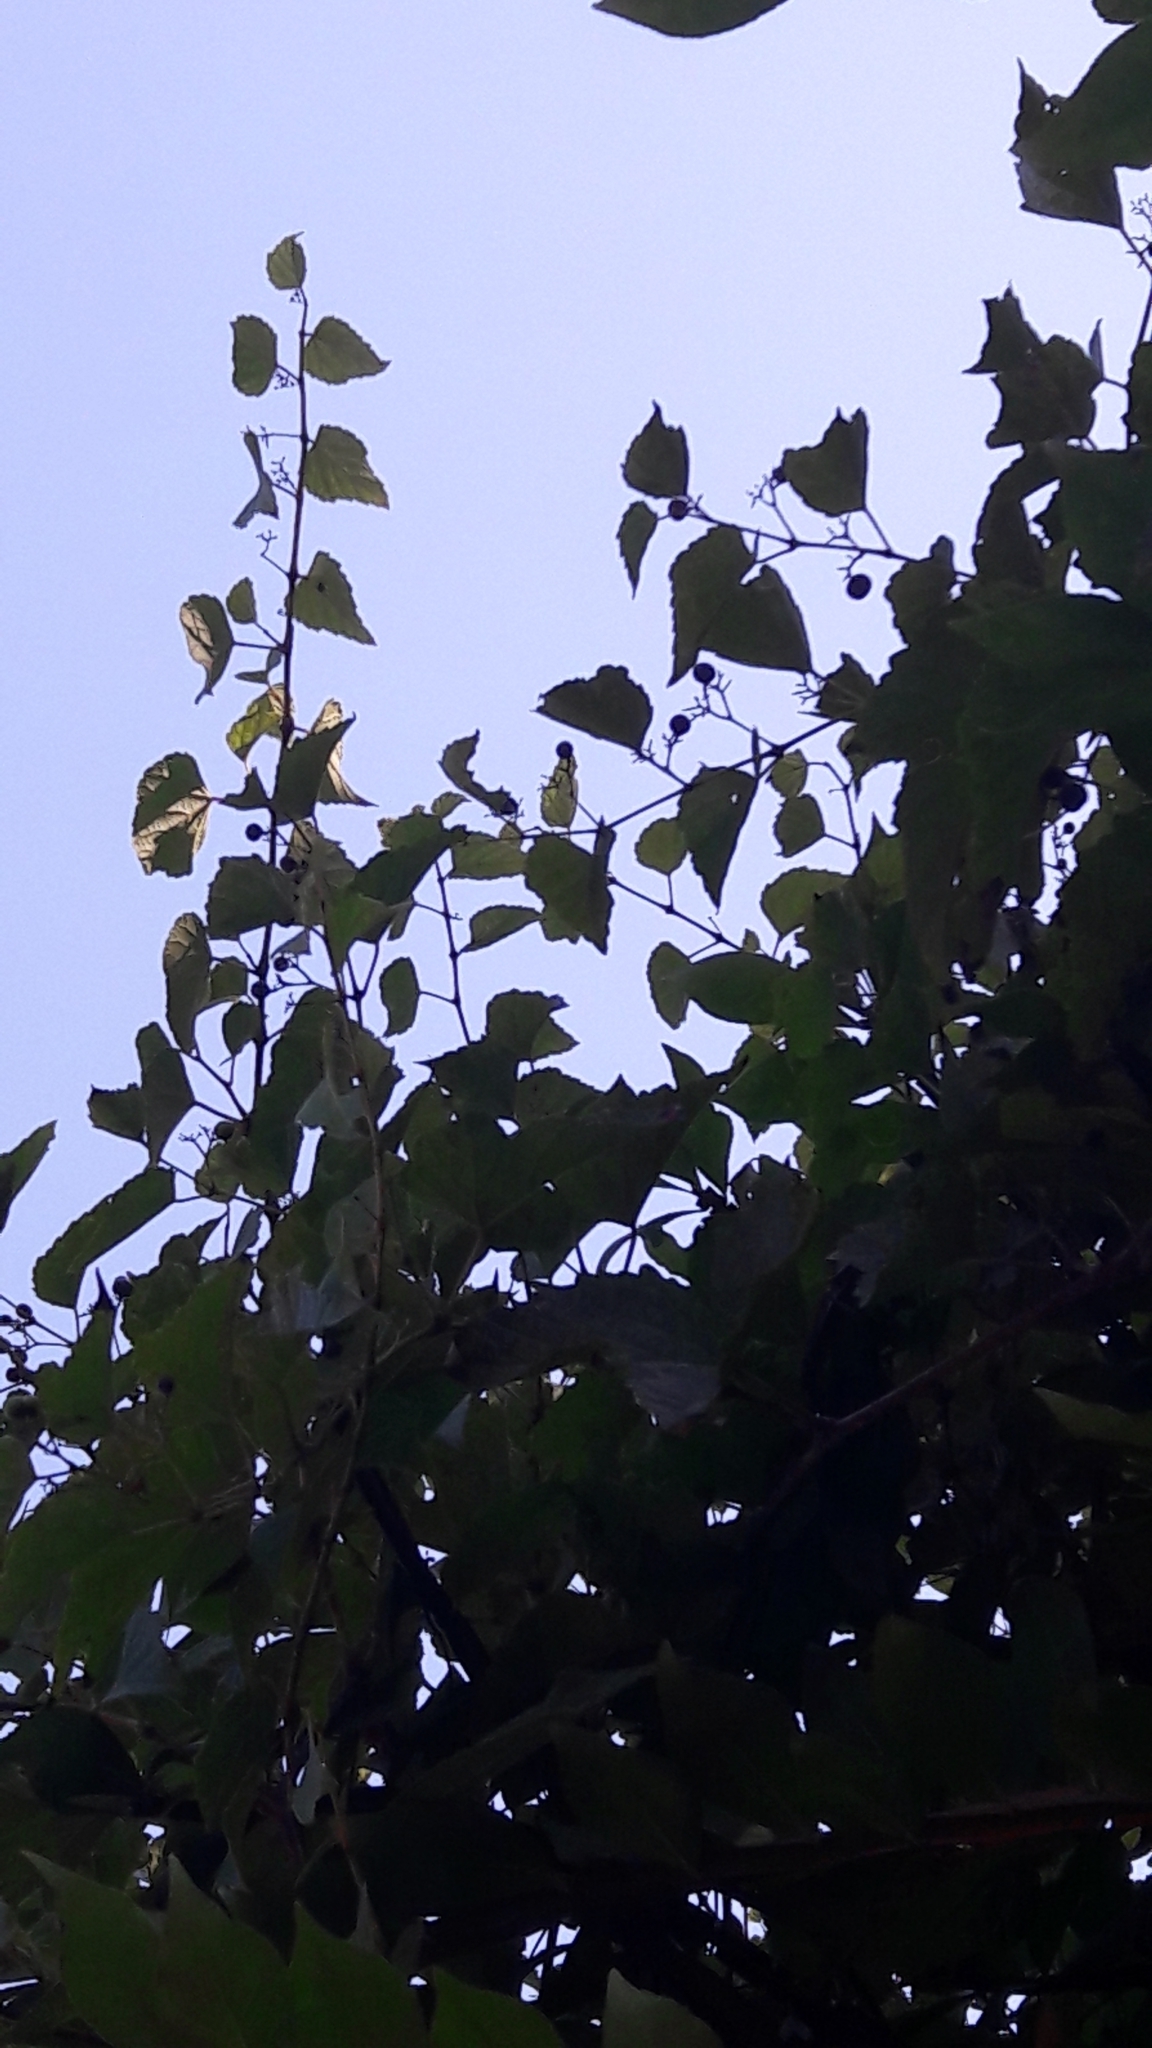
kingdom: Plantae
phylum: Tracheophyta
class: Magnoliopsida
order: Vitales
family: Vitaceae
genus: Ampelopsis
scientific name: Ampelopsis glandulosa
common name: Amur peppervine
